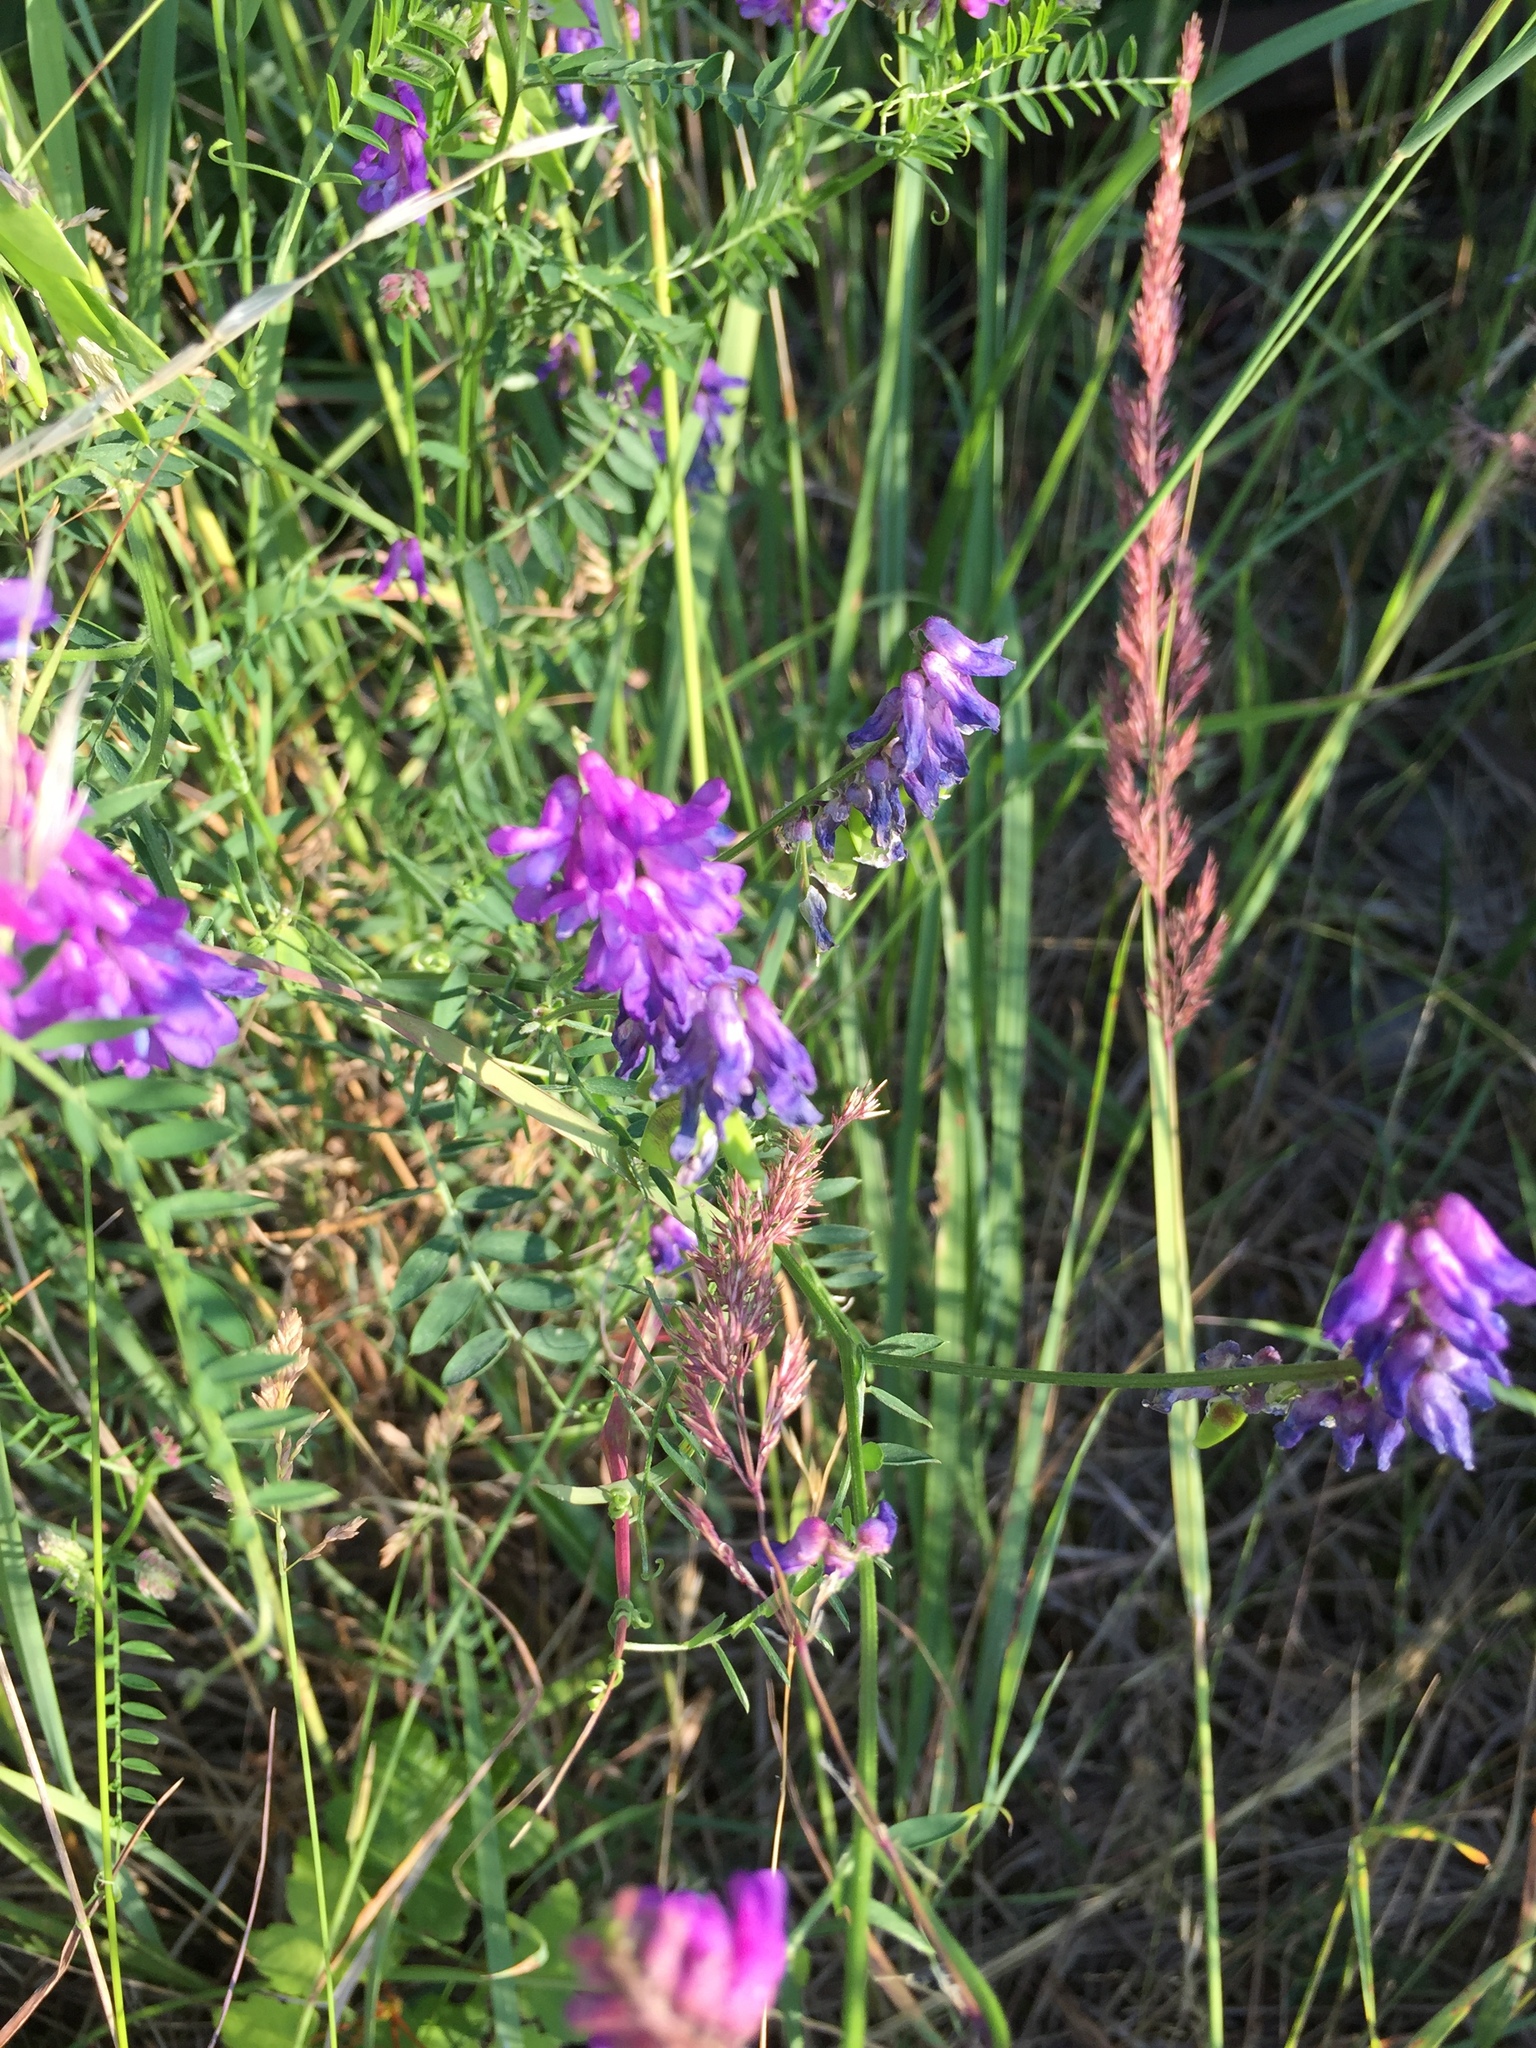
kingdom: Plantae
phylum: Tracheophyta
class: Magnoliopsida
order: Fabales
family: Fabaceae
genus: Vicia
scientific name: Vicia cracca
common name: Bird vetch
